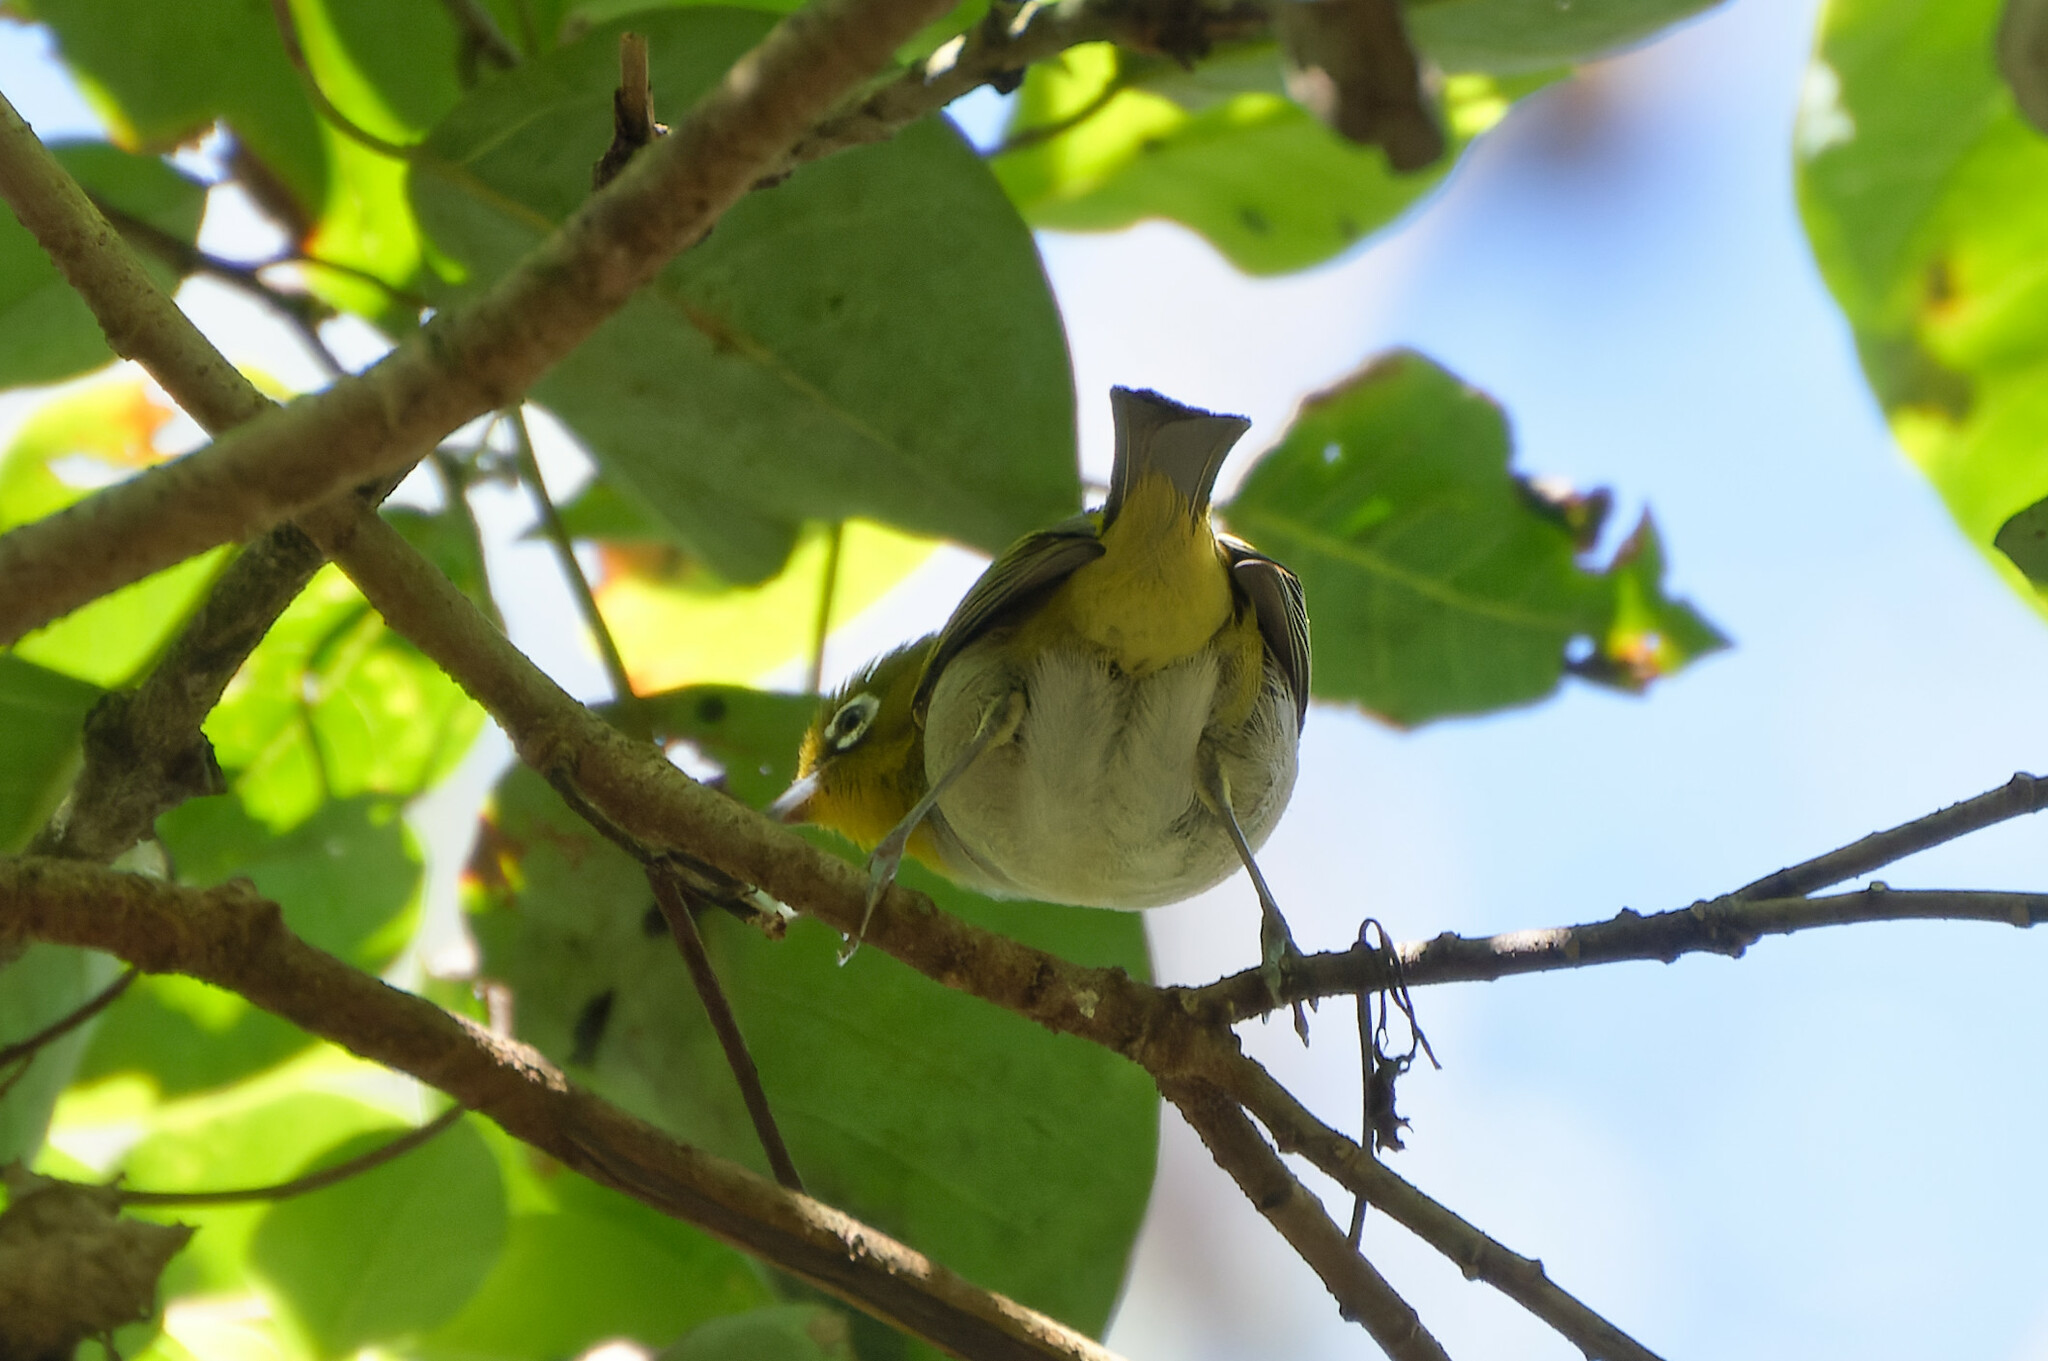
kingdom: Animalia
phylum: Chordata
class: Aves
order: Passeriformes
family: Zosteropidae
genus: Zosterops
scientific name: Zosterops lateralis
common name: Silvereye
